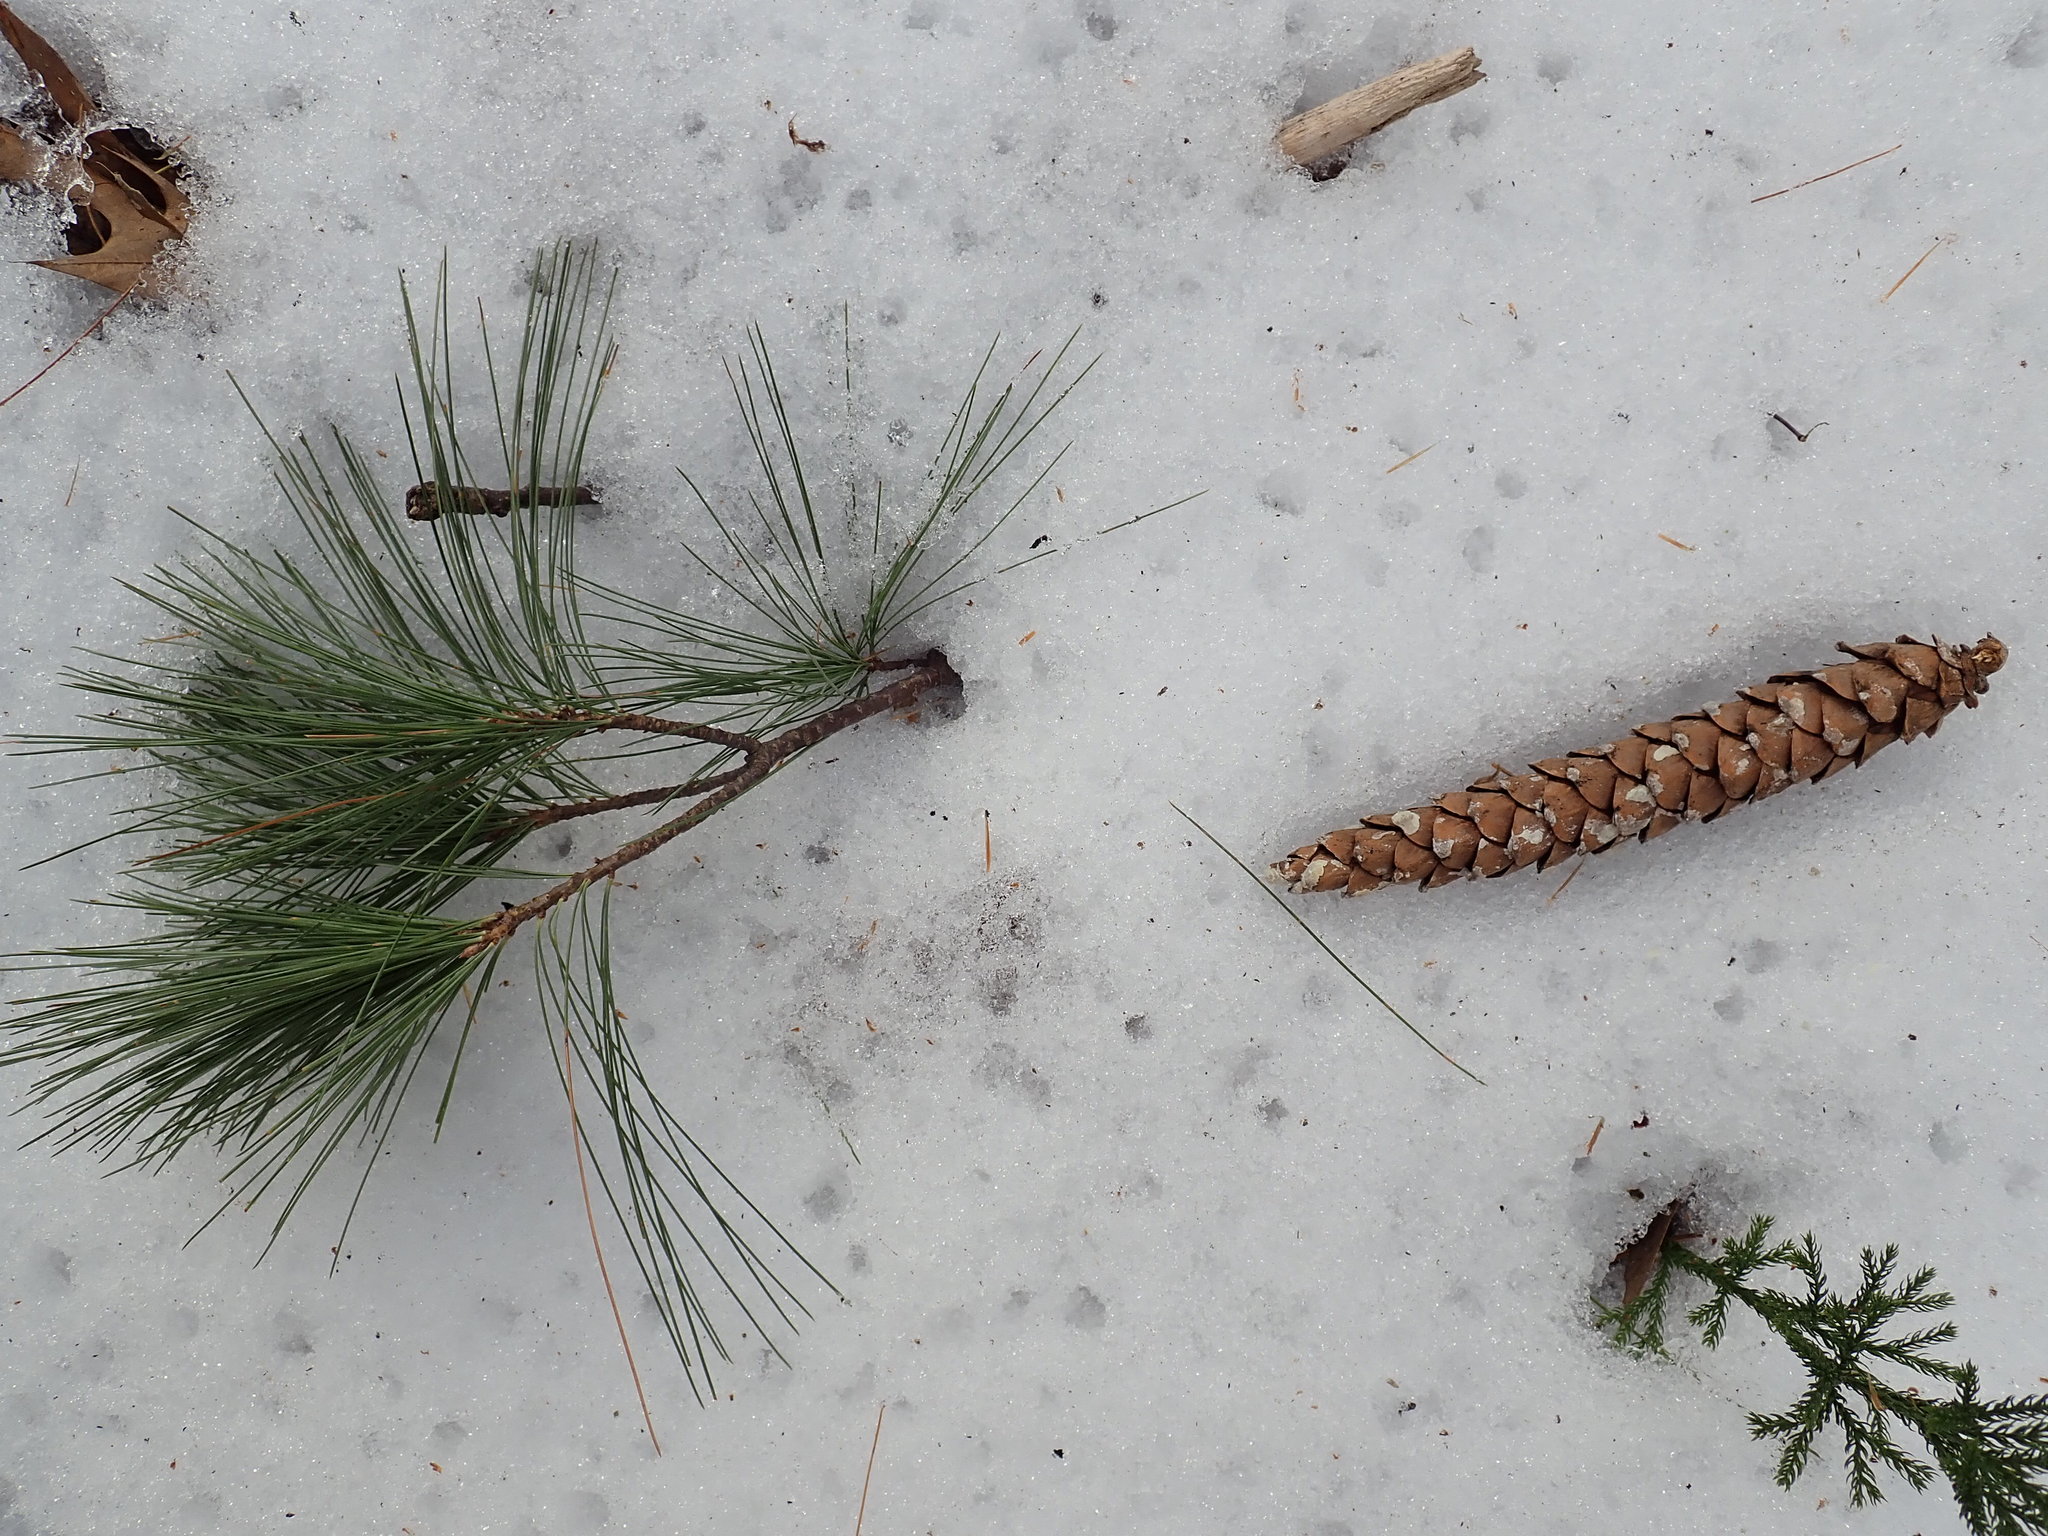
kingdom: Plantae
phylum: Tracheophyta
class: Pinopsida
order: Pinales
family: Pinaceae
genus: Pinus
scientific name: Pinus strobus
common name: Weymouth pine
